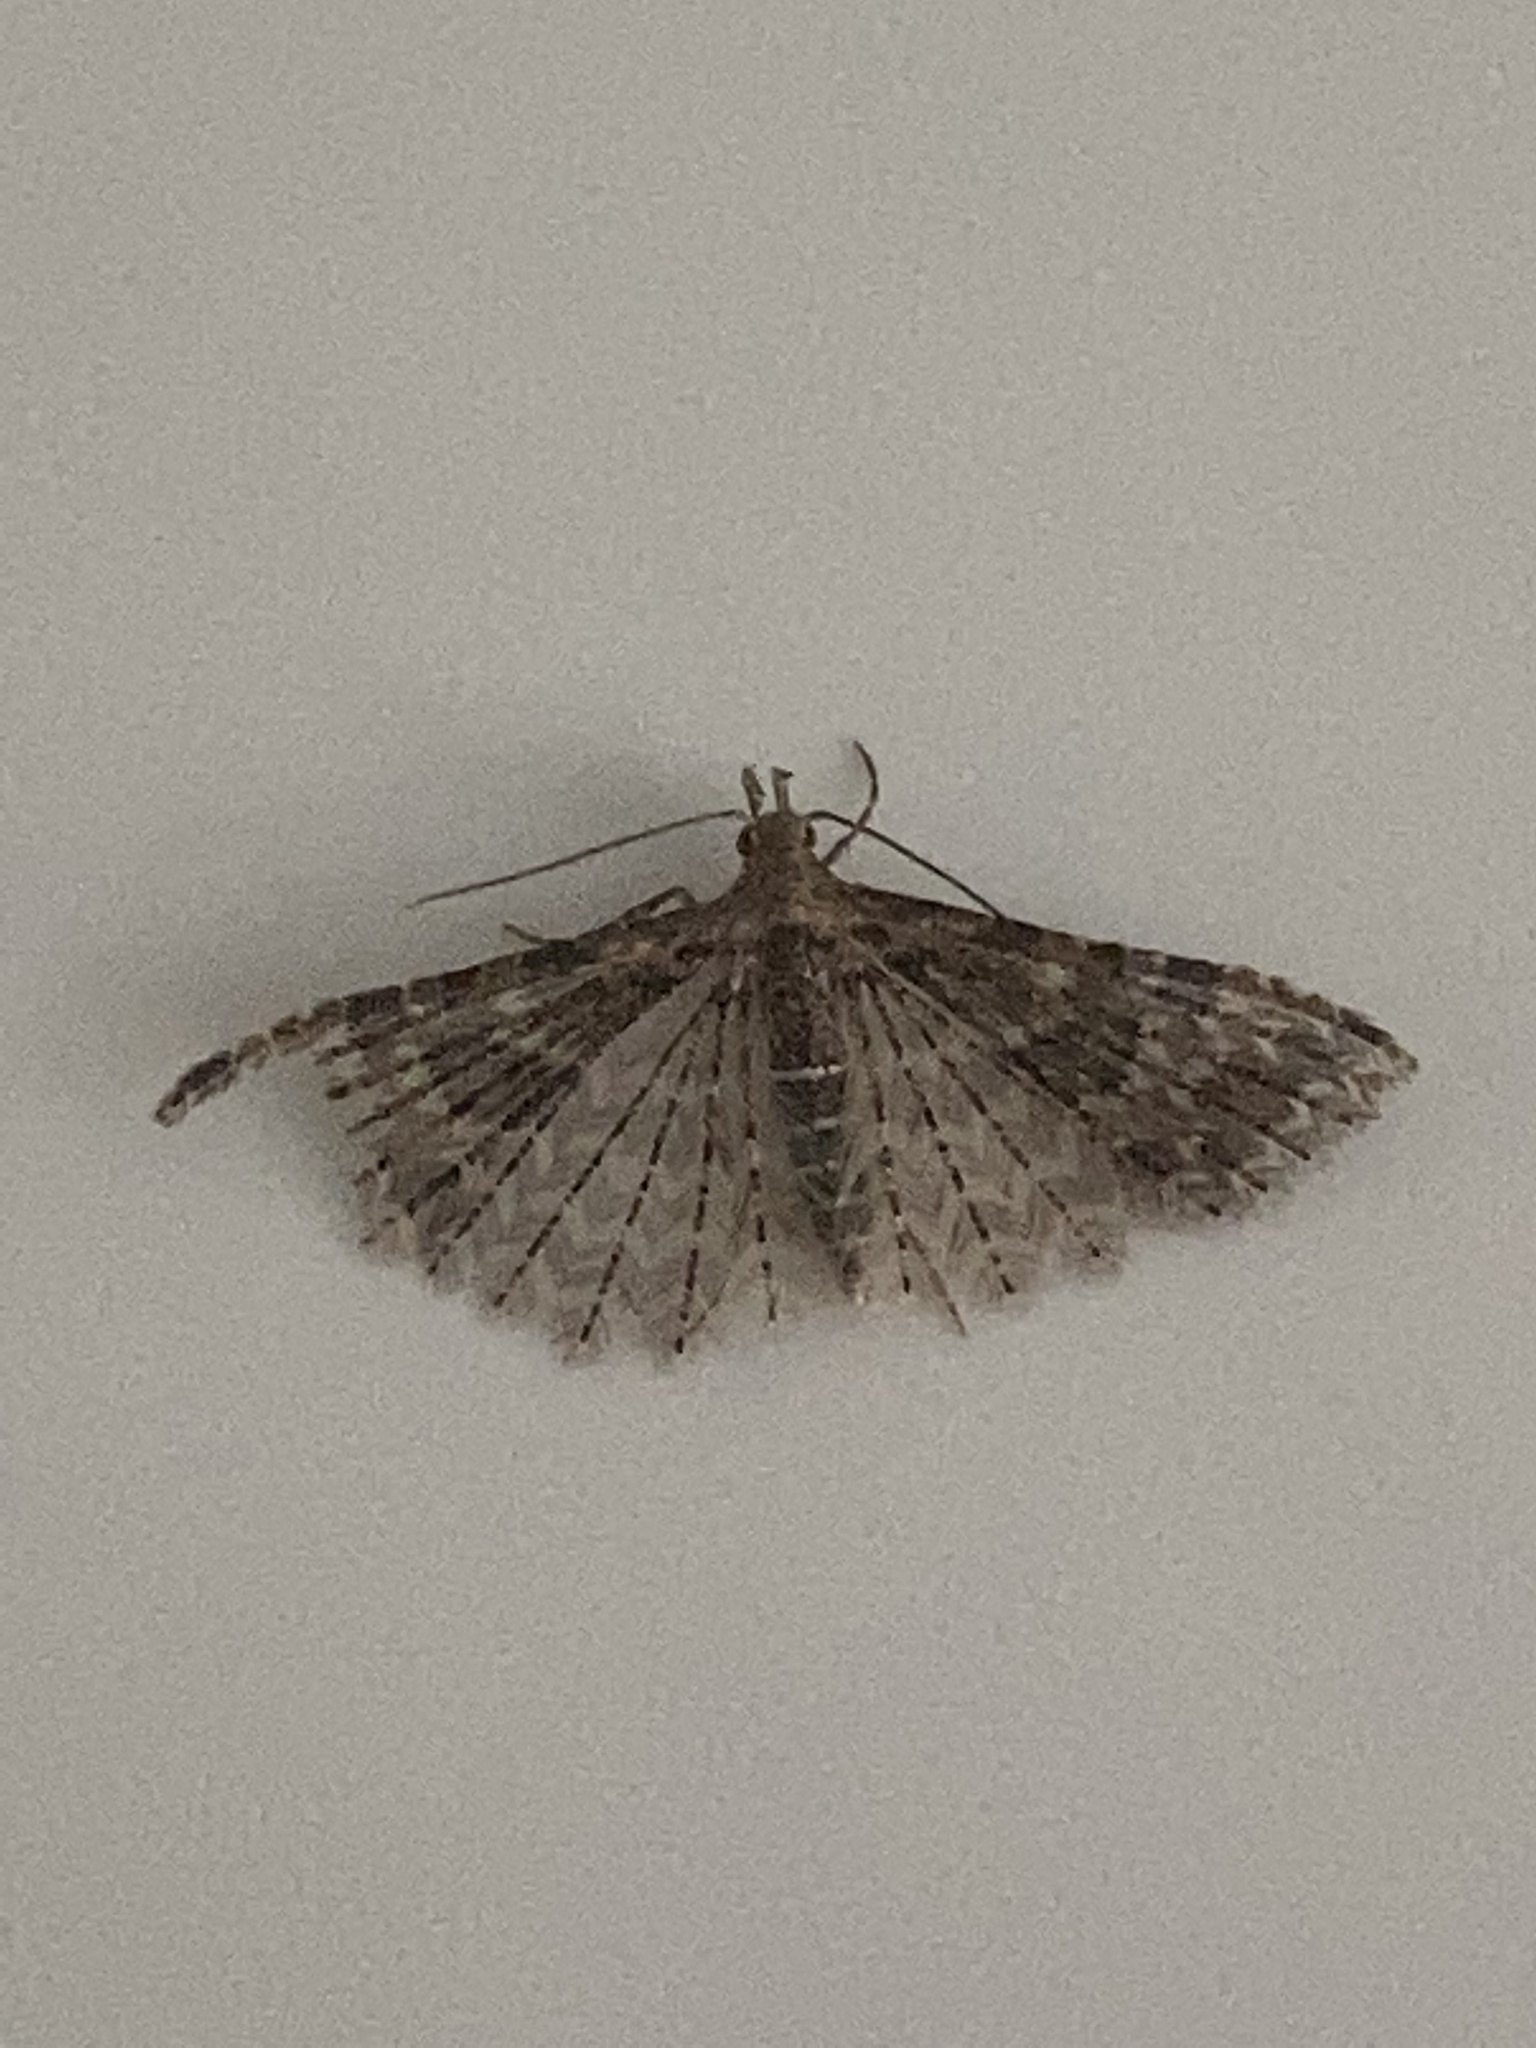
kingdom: Animalia
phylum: Arthropoda
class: Insecta
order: Lepidoptera
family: Alucitidae
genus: Alucita
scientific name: Alucita montana
